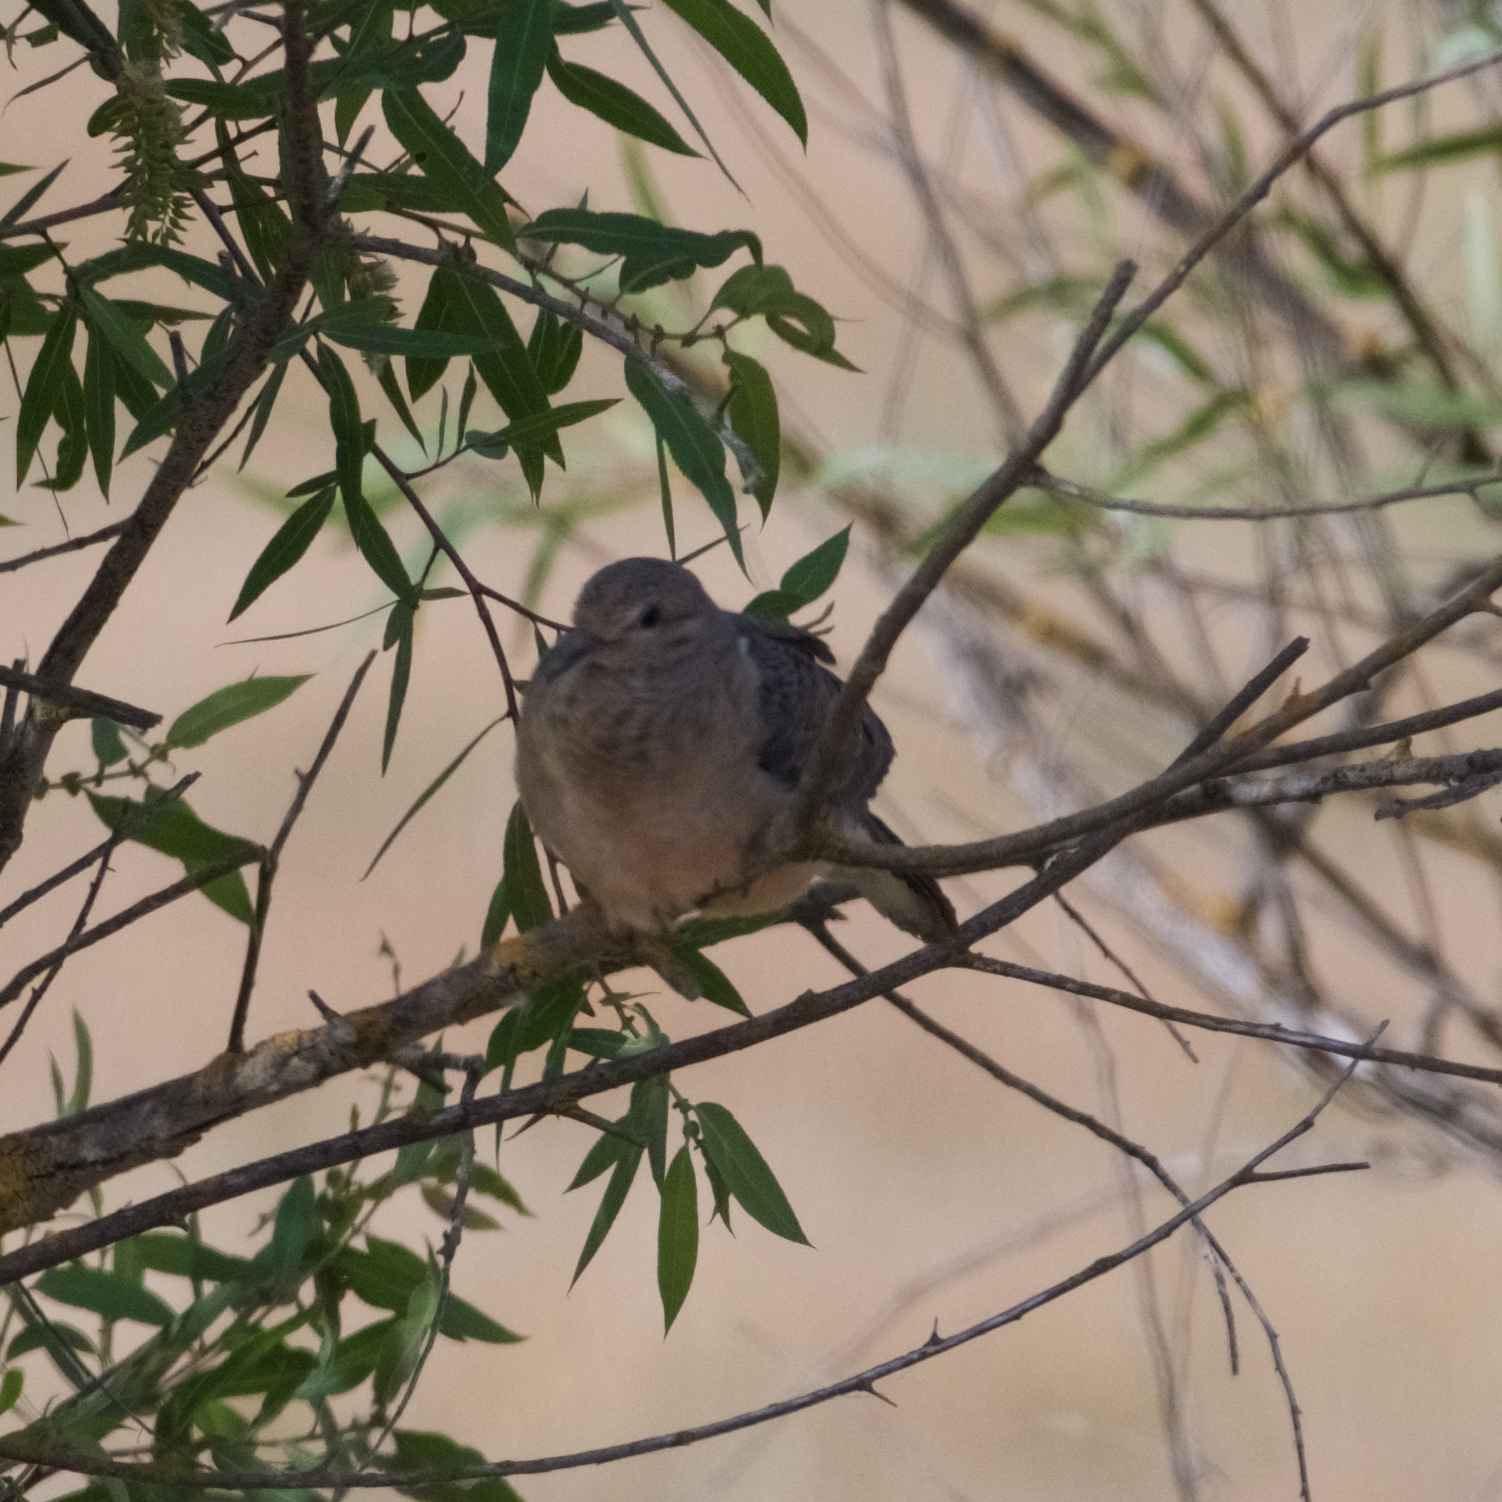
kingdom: Animalia
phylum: Chordata
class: Aves
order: Columbiformes
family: Columbidae
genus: Zenaida
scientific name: Zenaida macroura
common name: Mourning dove
